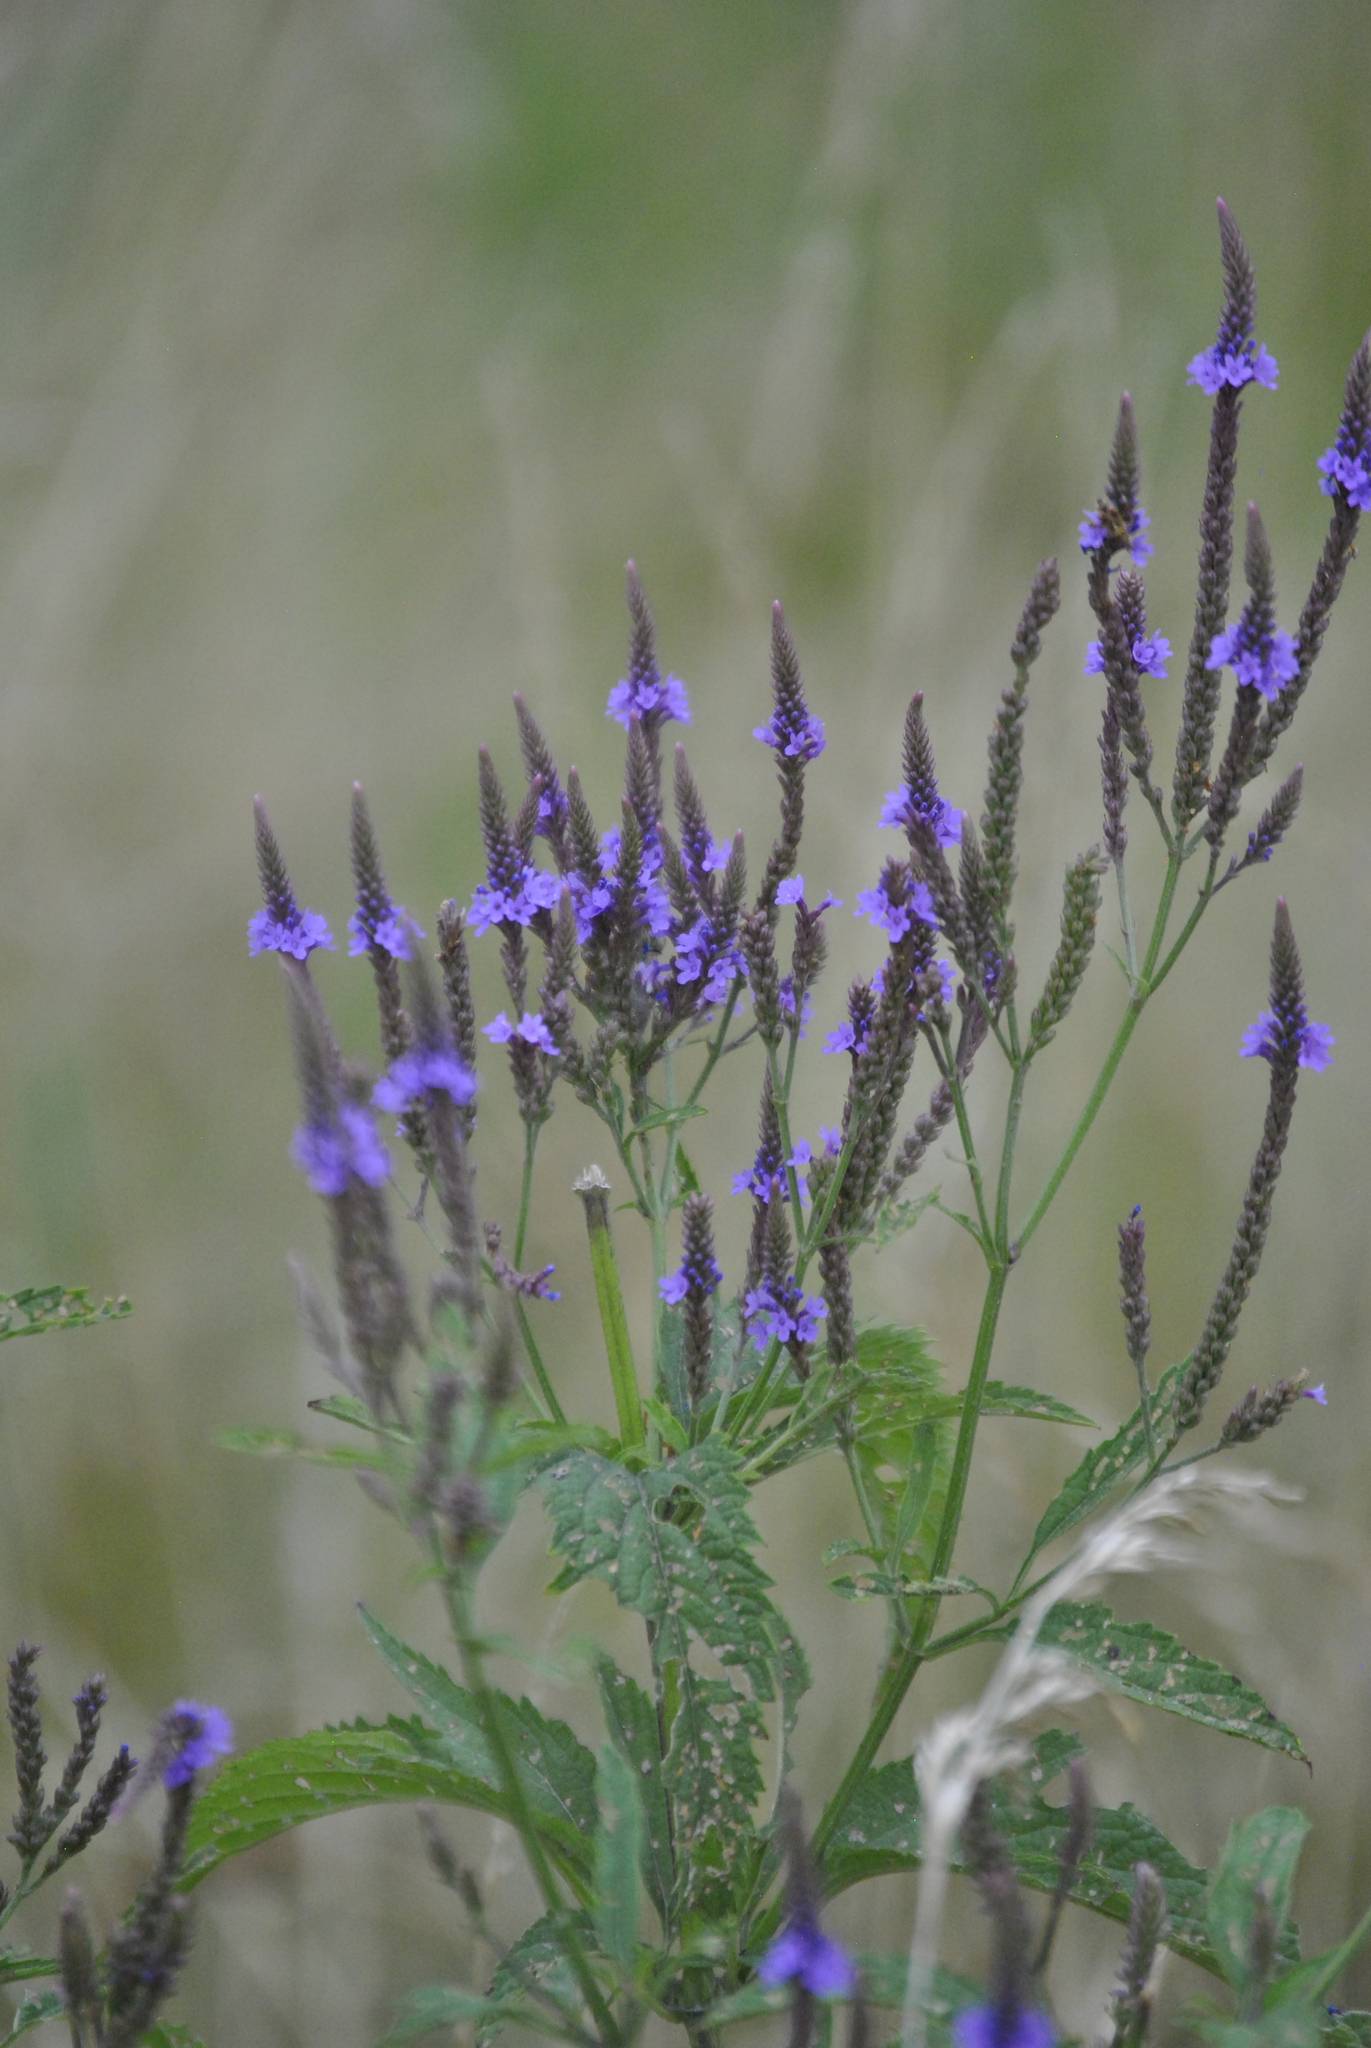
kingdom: Plantae
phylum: Tracheophyta
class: Magnoliopsida
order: Lamiales
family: Verbenaceae
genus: Verbena
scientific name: Verbena hastata
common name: American blue vervain
